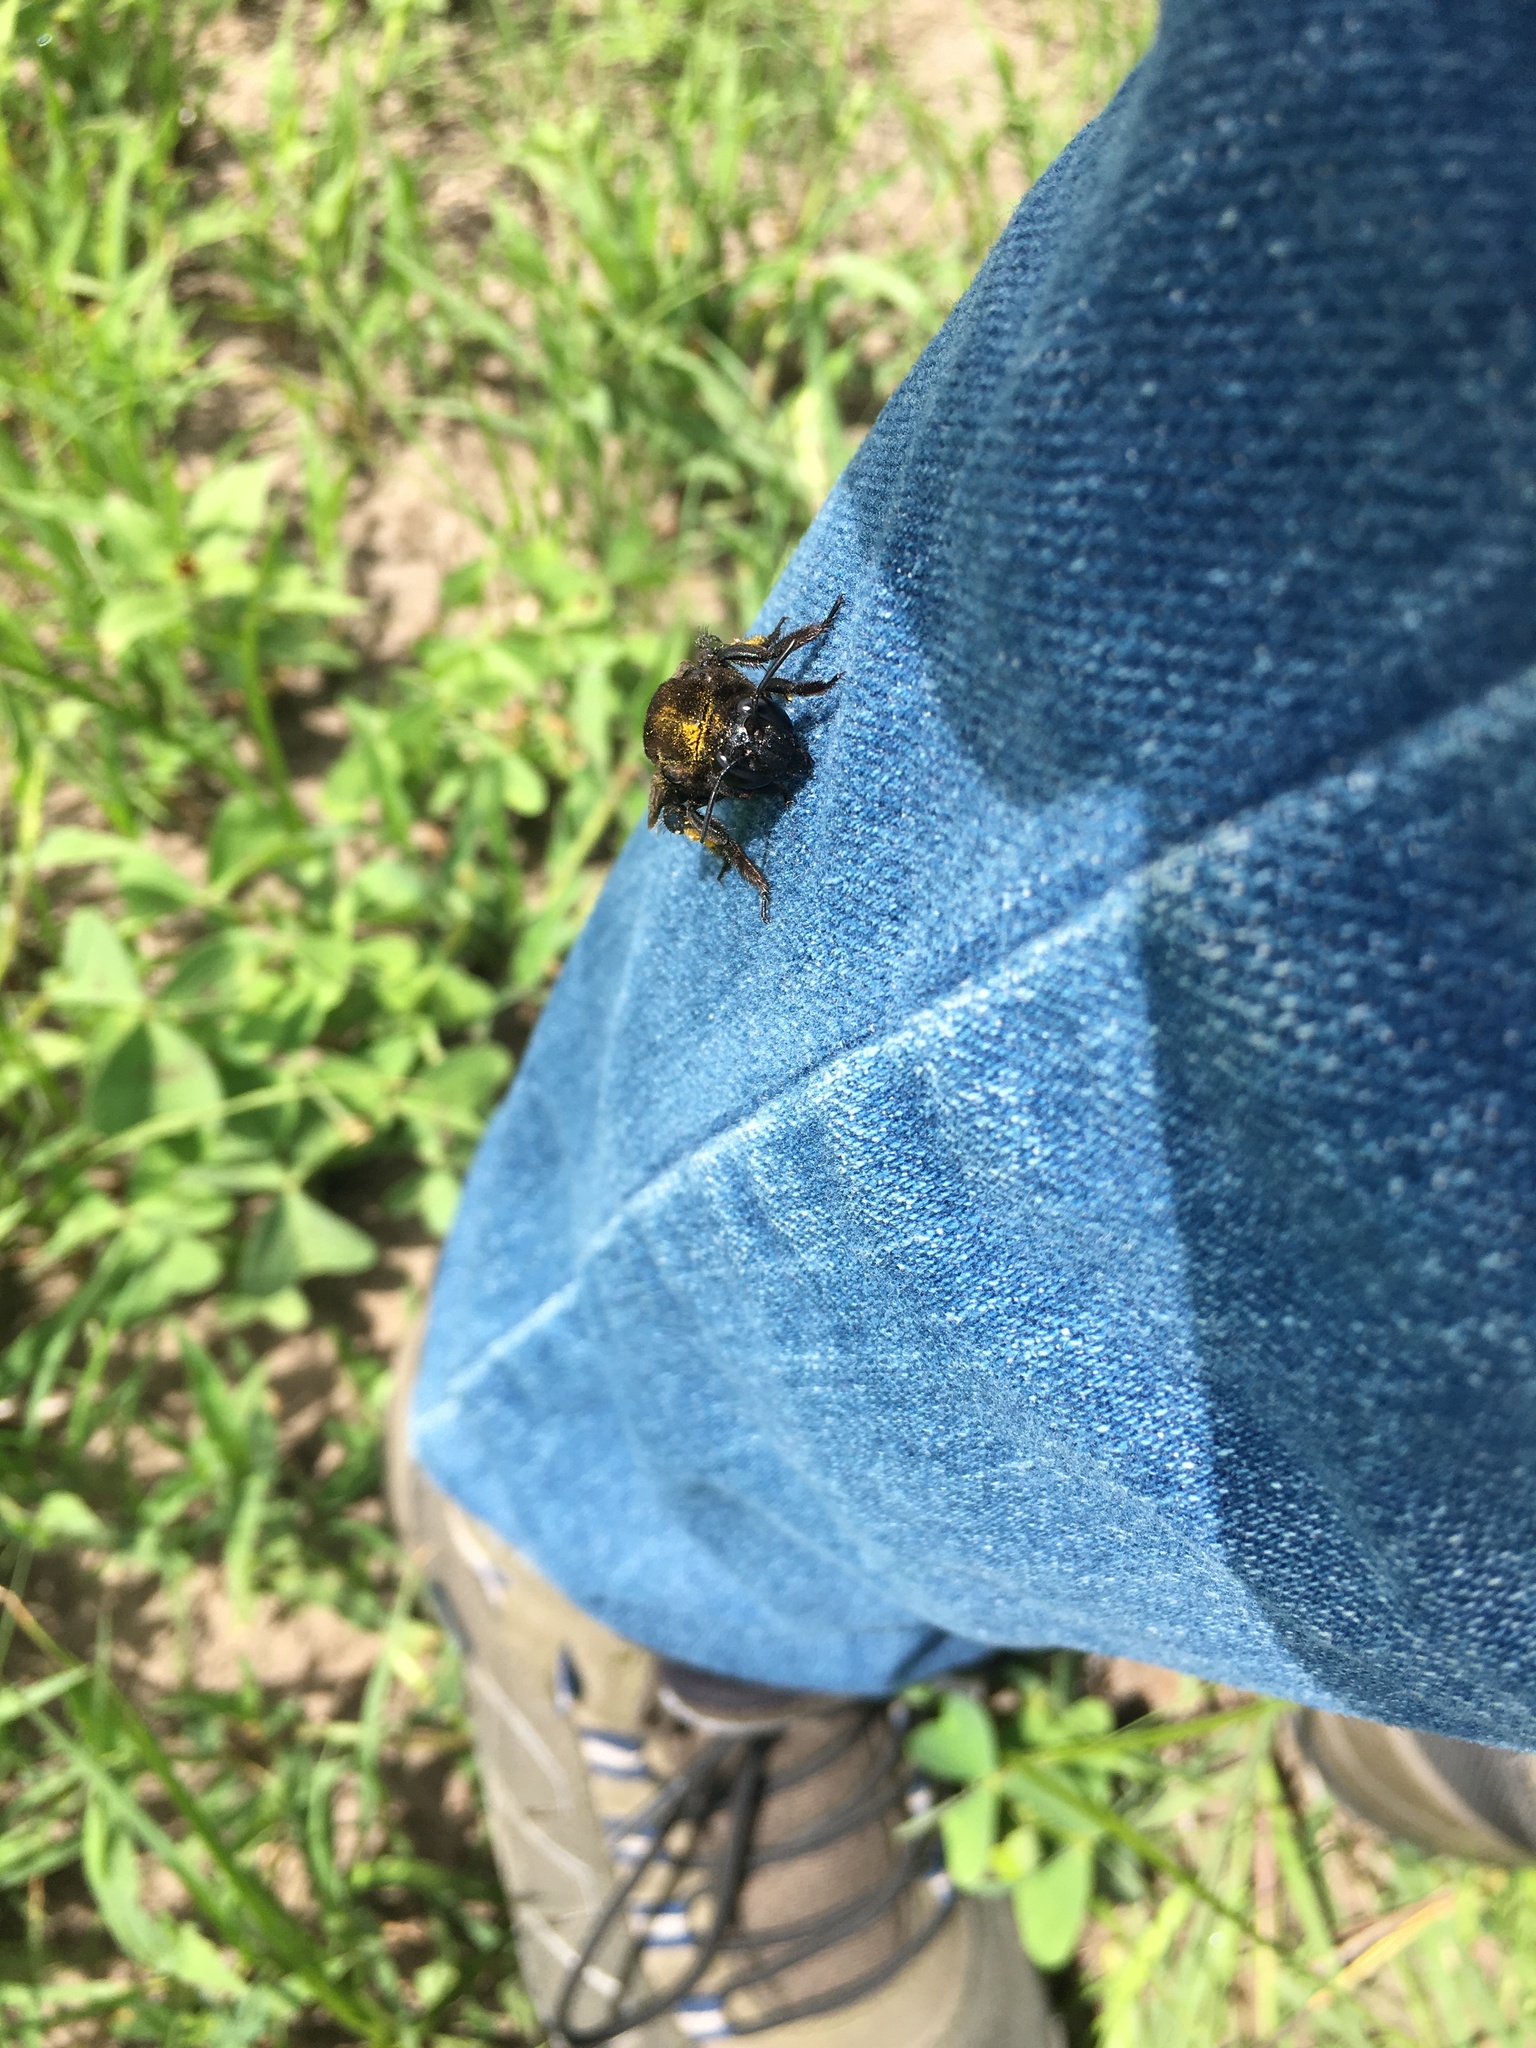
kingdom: Animalia
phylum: Arthropoda
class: Insecta
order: Hymenoptera
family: Apidae
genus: Eulaema
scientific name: Eulaema polychroma
